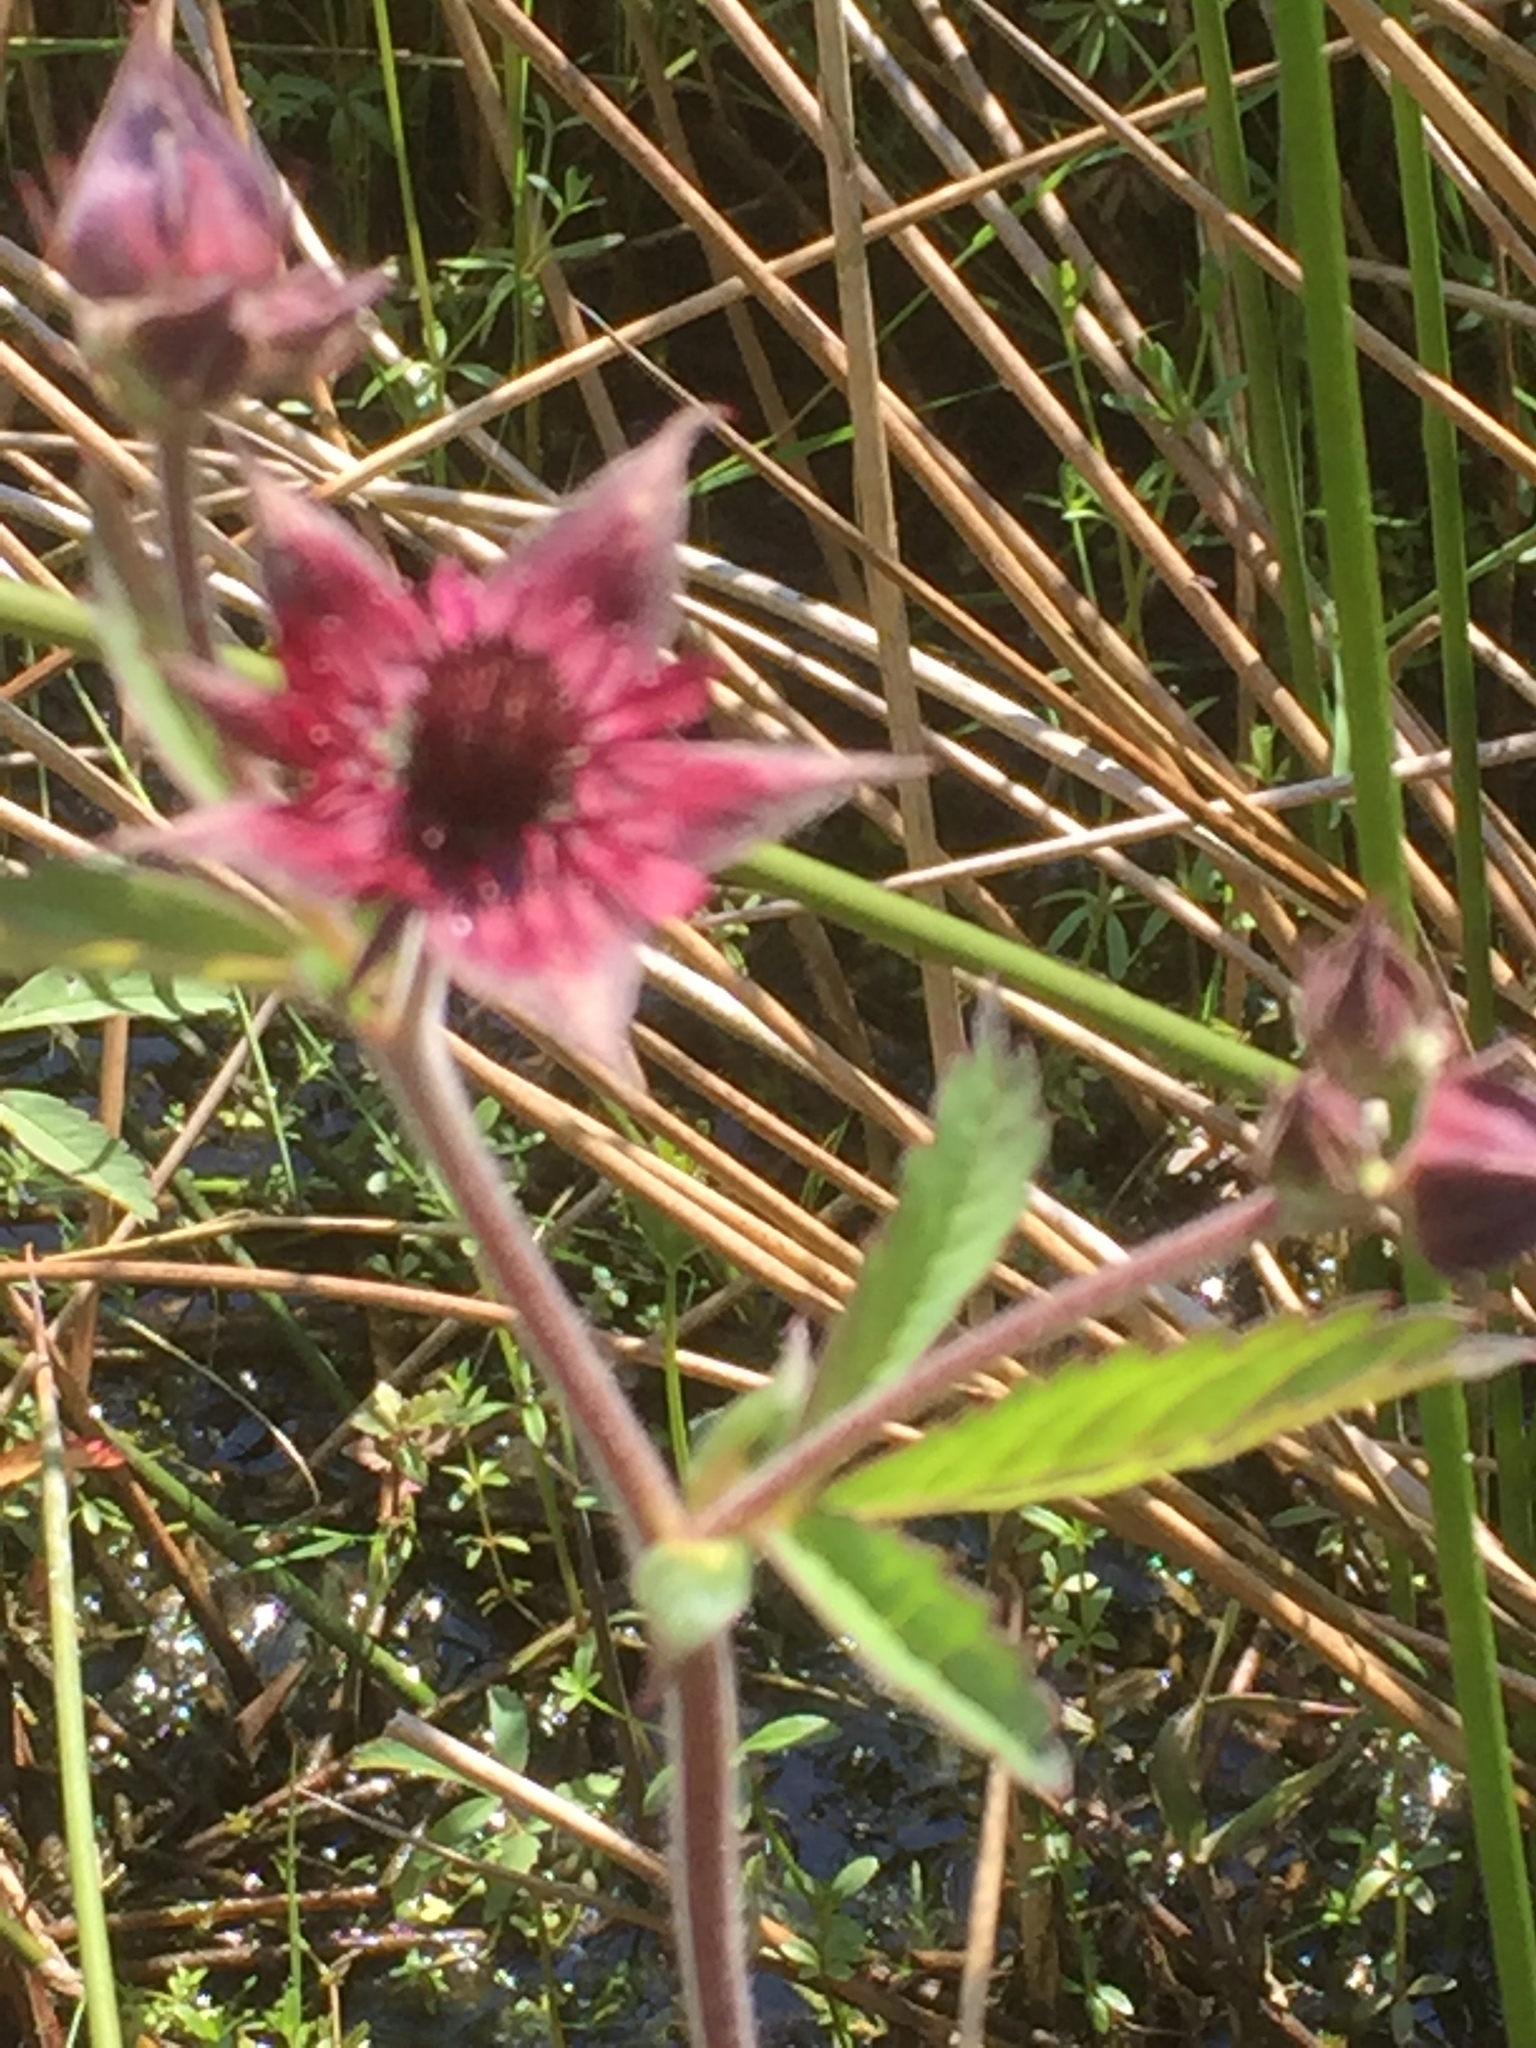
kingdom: Plantae
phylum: Tracheophyta
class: Magnoliopsida
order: Rosales
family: Rosaceae
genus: Comarum
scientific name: Comarum palustre
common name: Marsh cinquefoil
